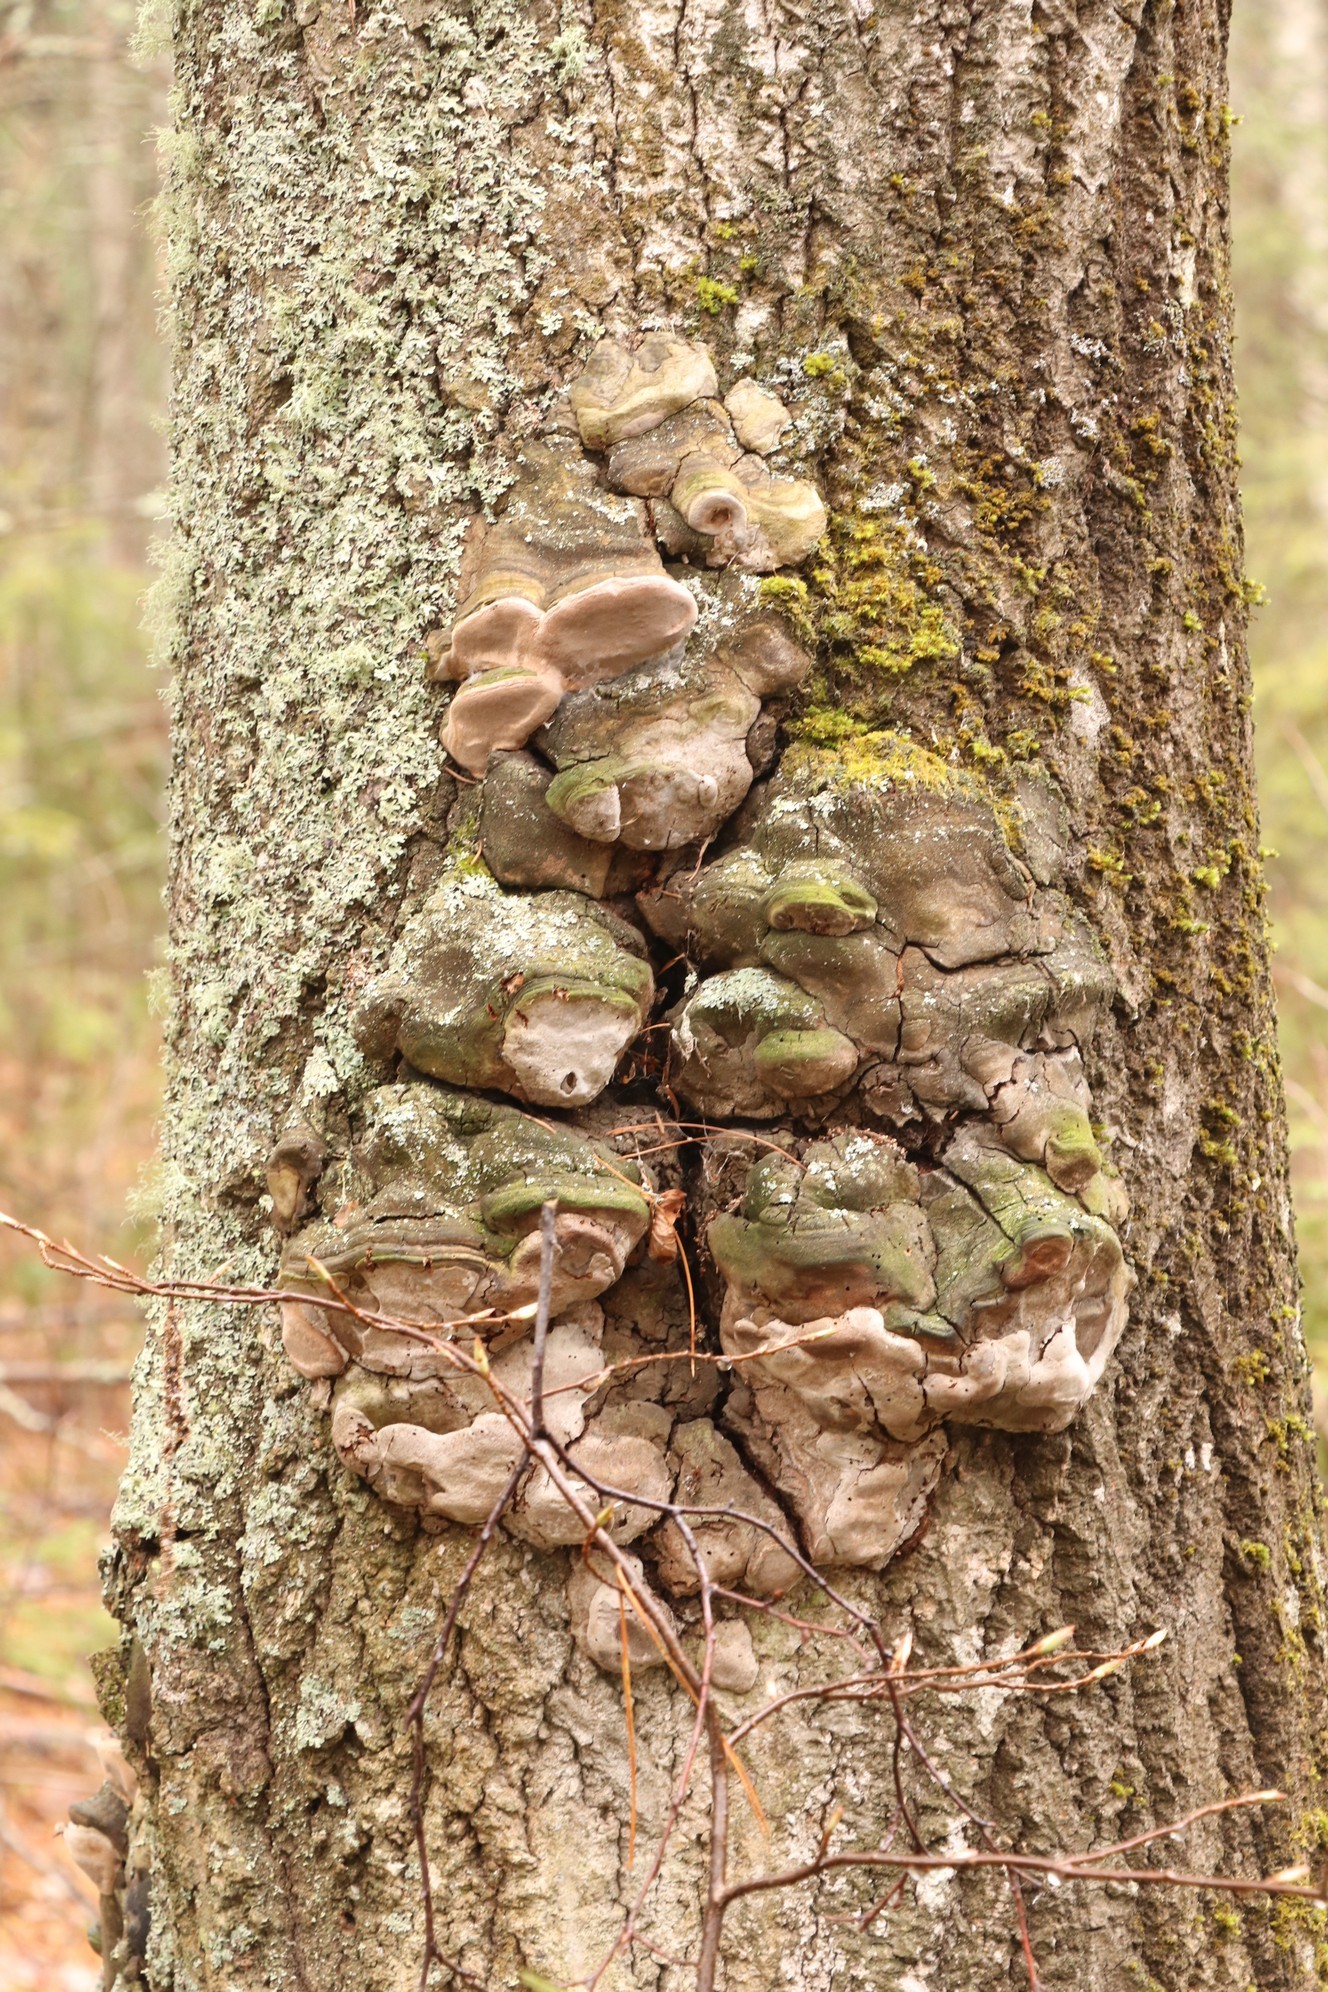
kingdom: Fungi
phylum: Basidiomycota
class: Agaricomycetes
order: Hymenochaetales
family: Hymenochaetaceae
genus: Phellinus
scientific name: Phellinus tremulae
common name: Aspen bracket
